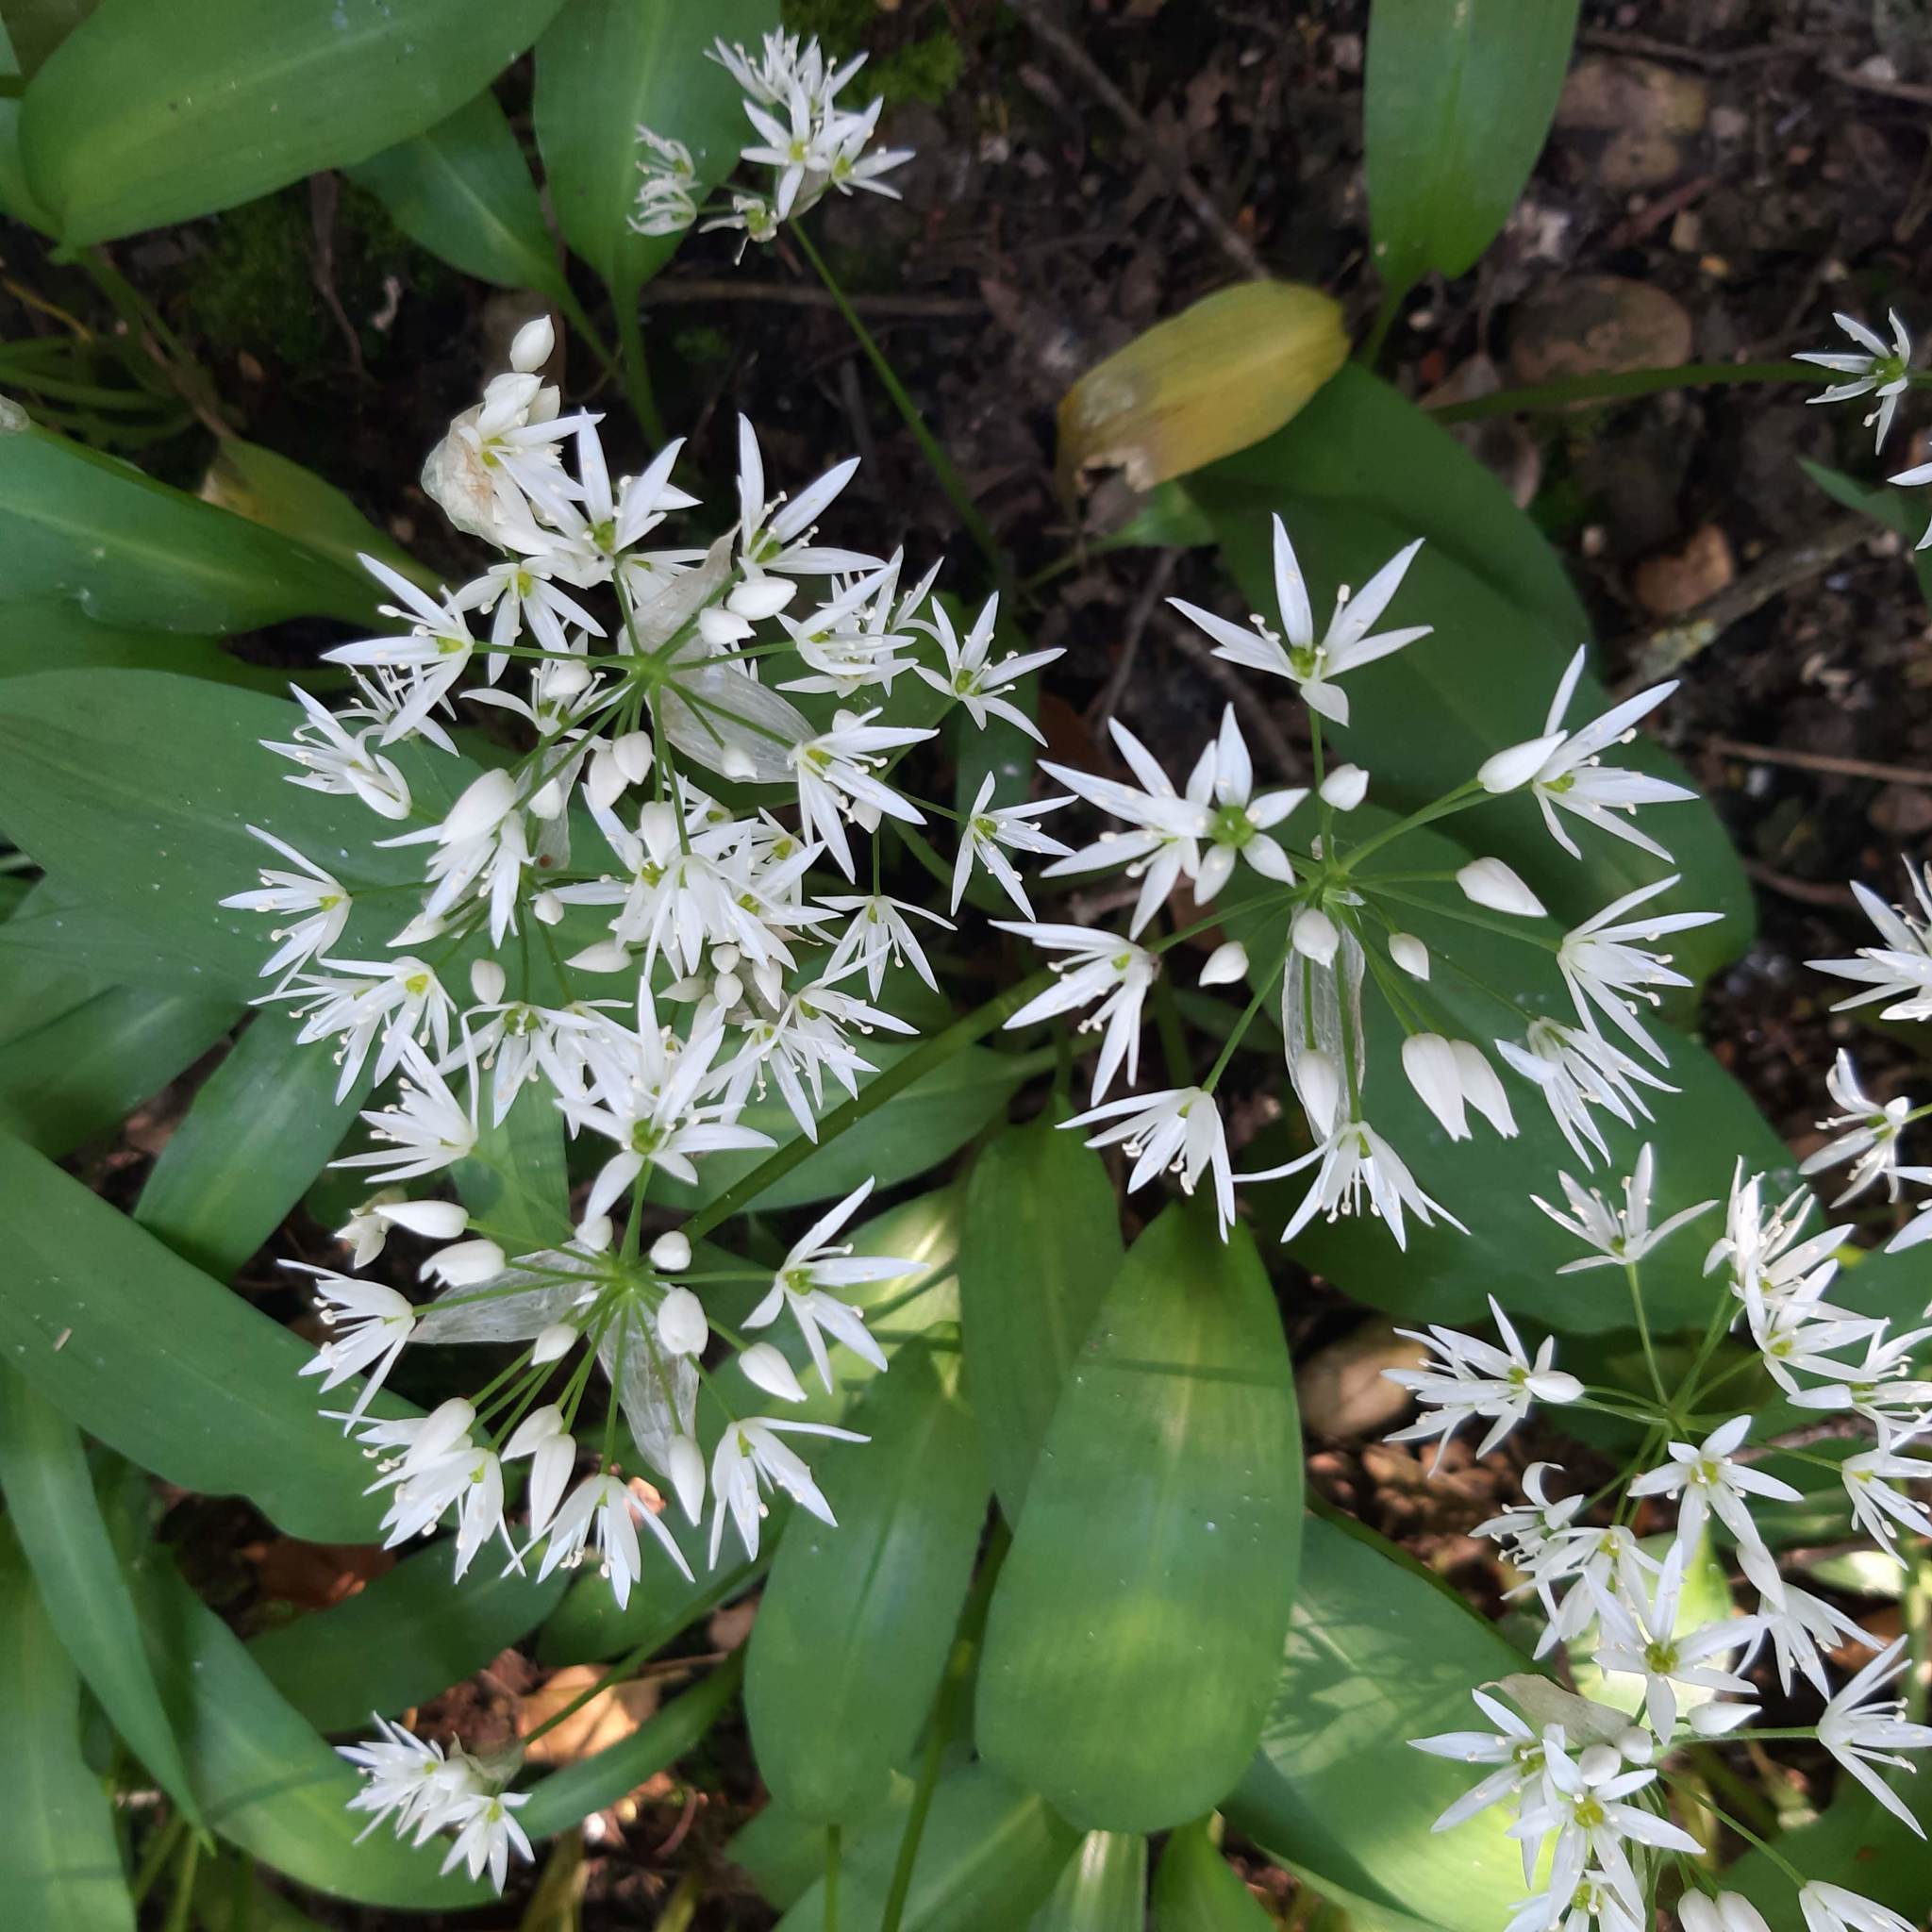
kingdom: Plantae
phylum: Tracheophyta
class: Liliopsida
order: Asparagales
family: Amaryllidaceae
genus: Allium
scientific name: Allium ursinum
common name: Ramsons
